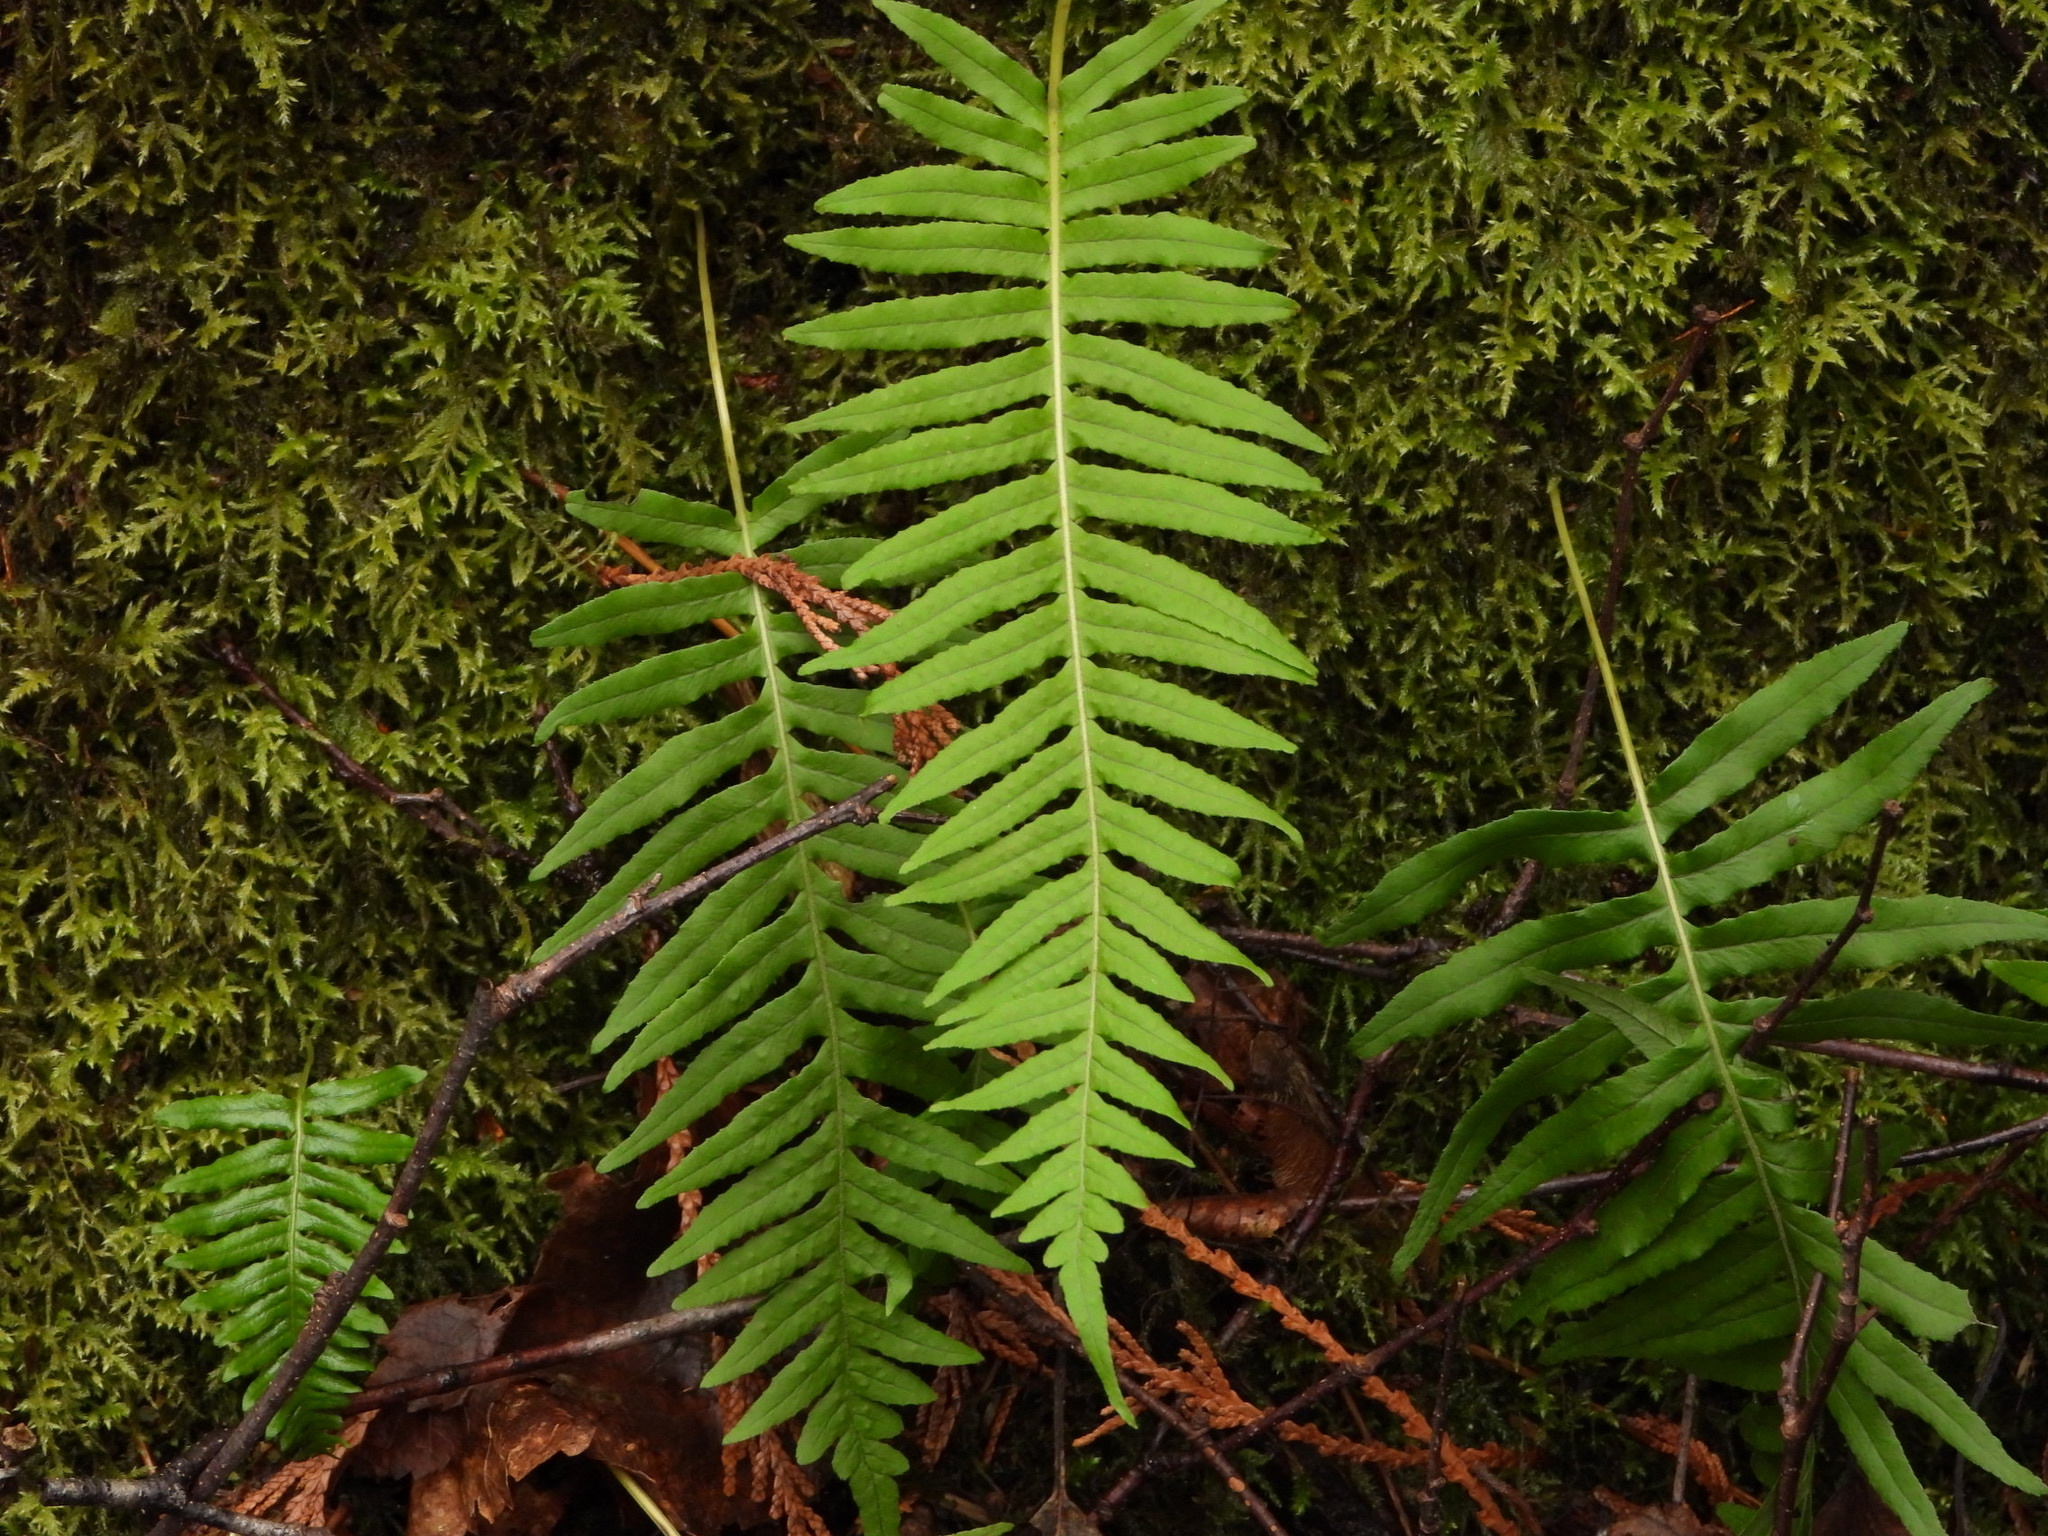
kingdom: Plantae
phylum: Tracheophyta
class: Polypodiopsida
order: Polypodiales
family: Polypodiaceae
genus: Polypodium
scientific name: Polypodium glycyrrhiza
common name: Licorice fern
